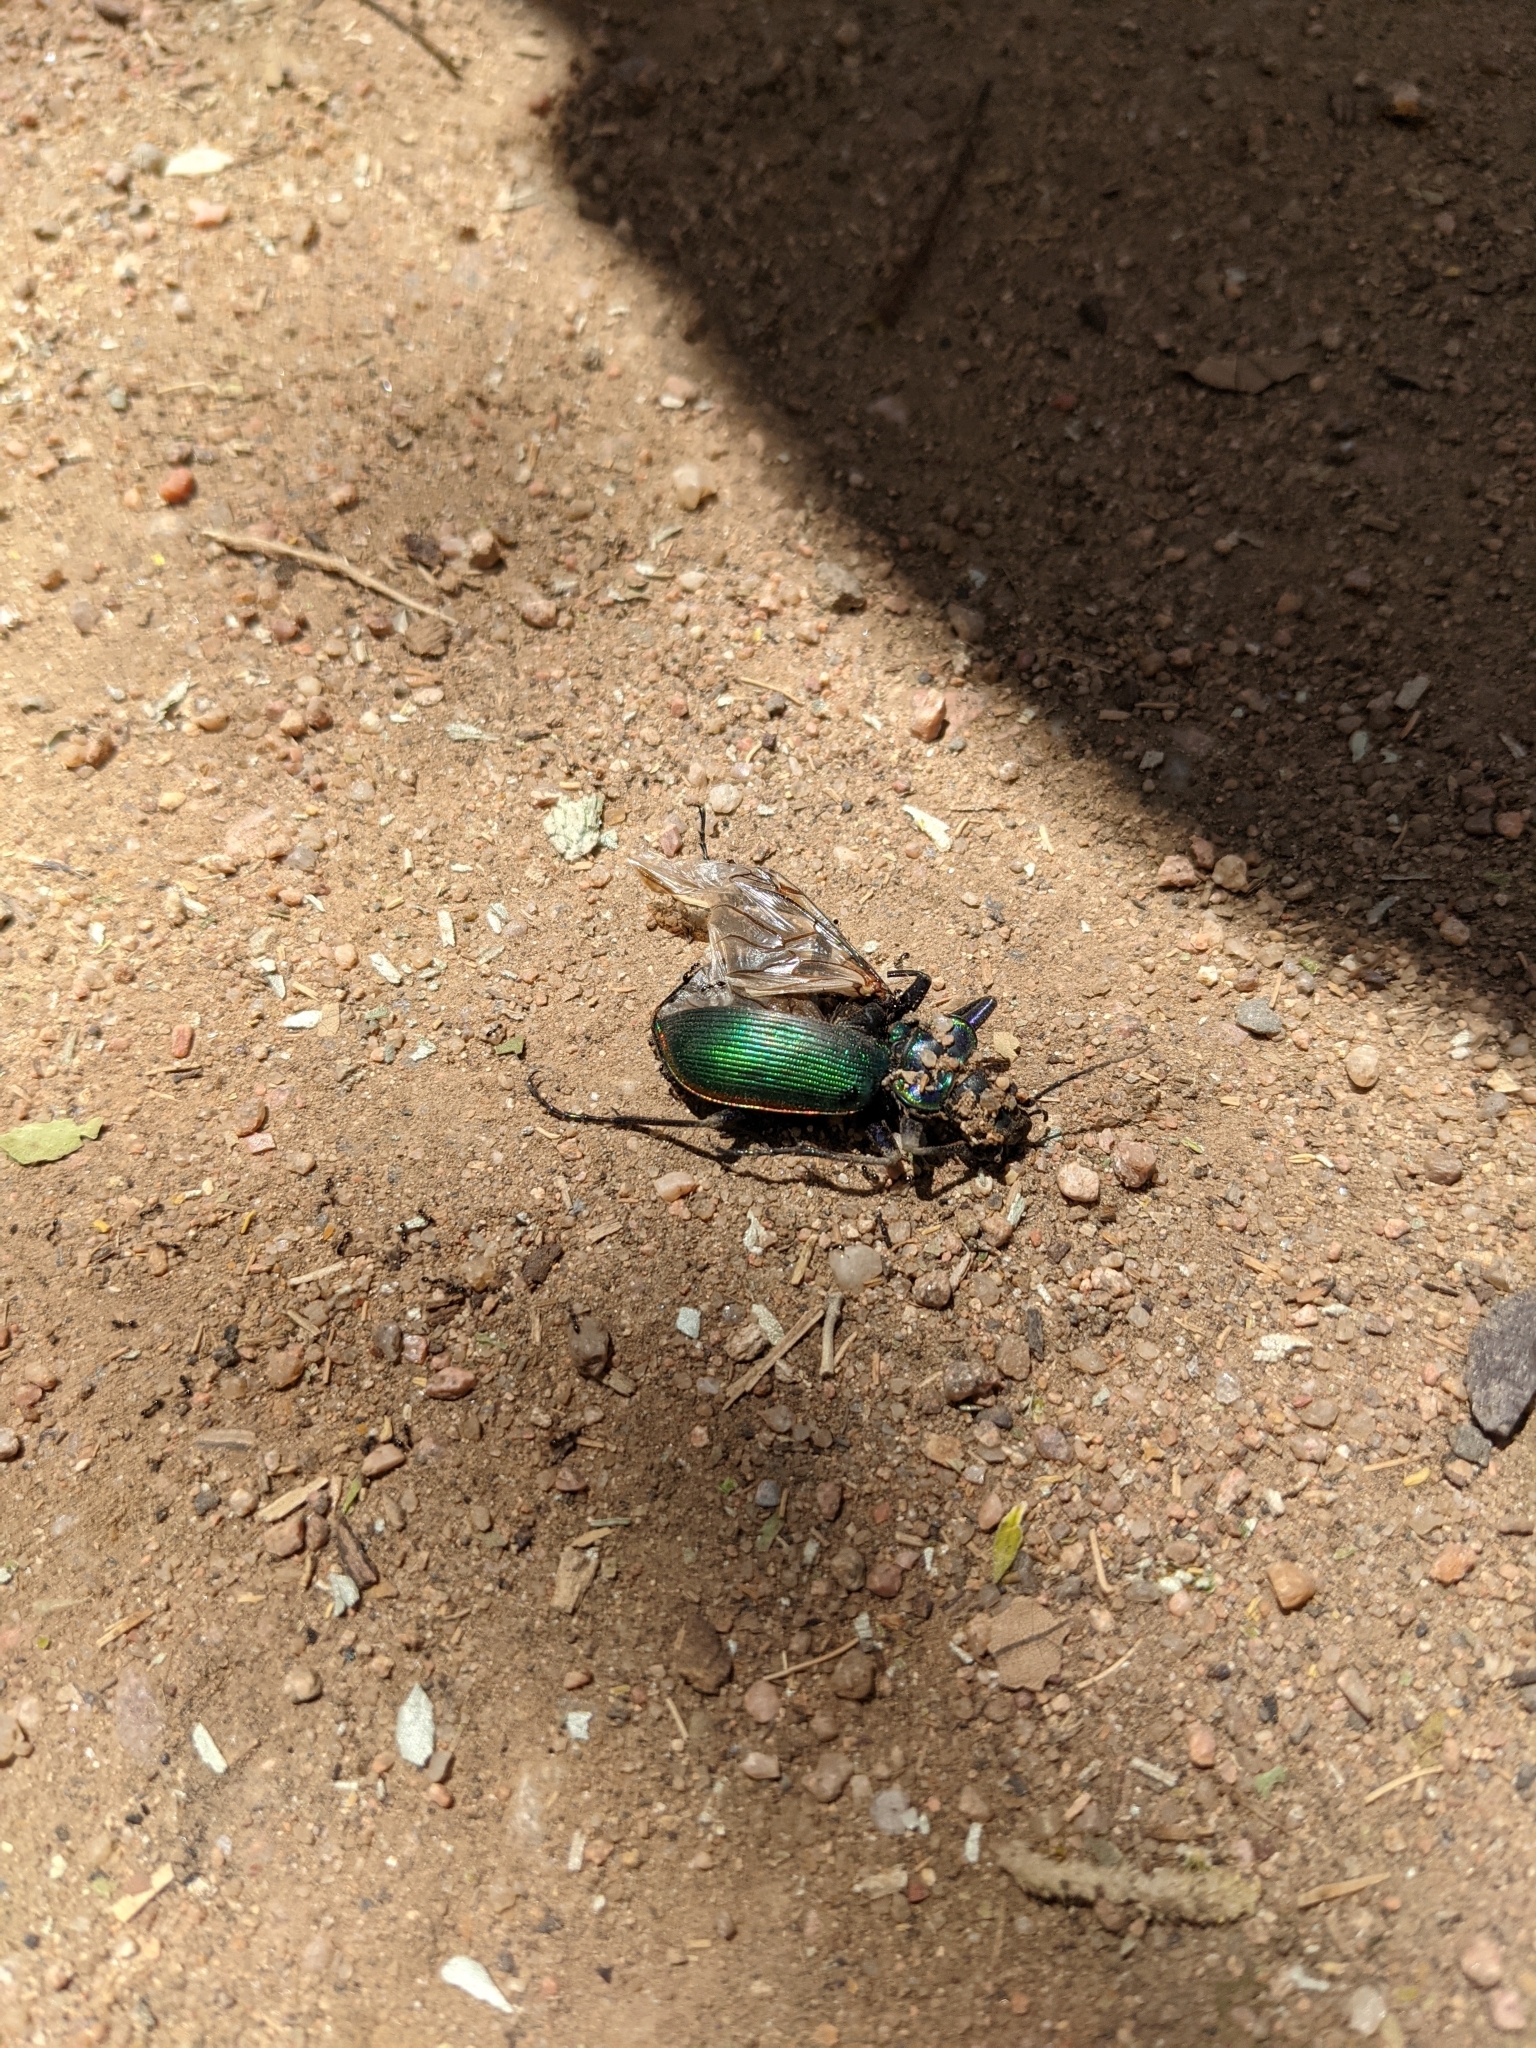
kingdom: Animalia
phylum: Arthropoda
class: Insecta
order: Coleoptera
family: Carabidae
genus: Calosoma
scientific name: Calosoma scrutator
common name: Fiery searcher beetle
